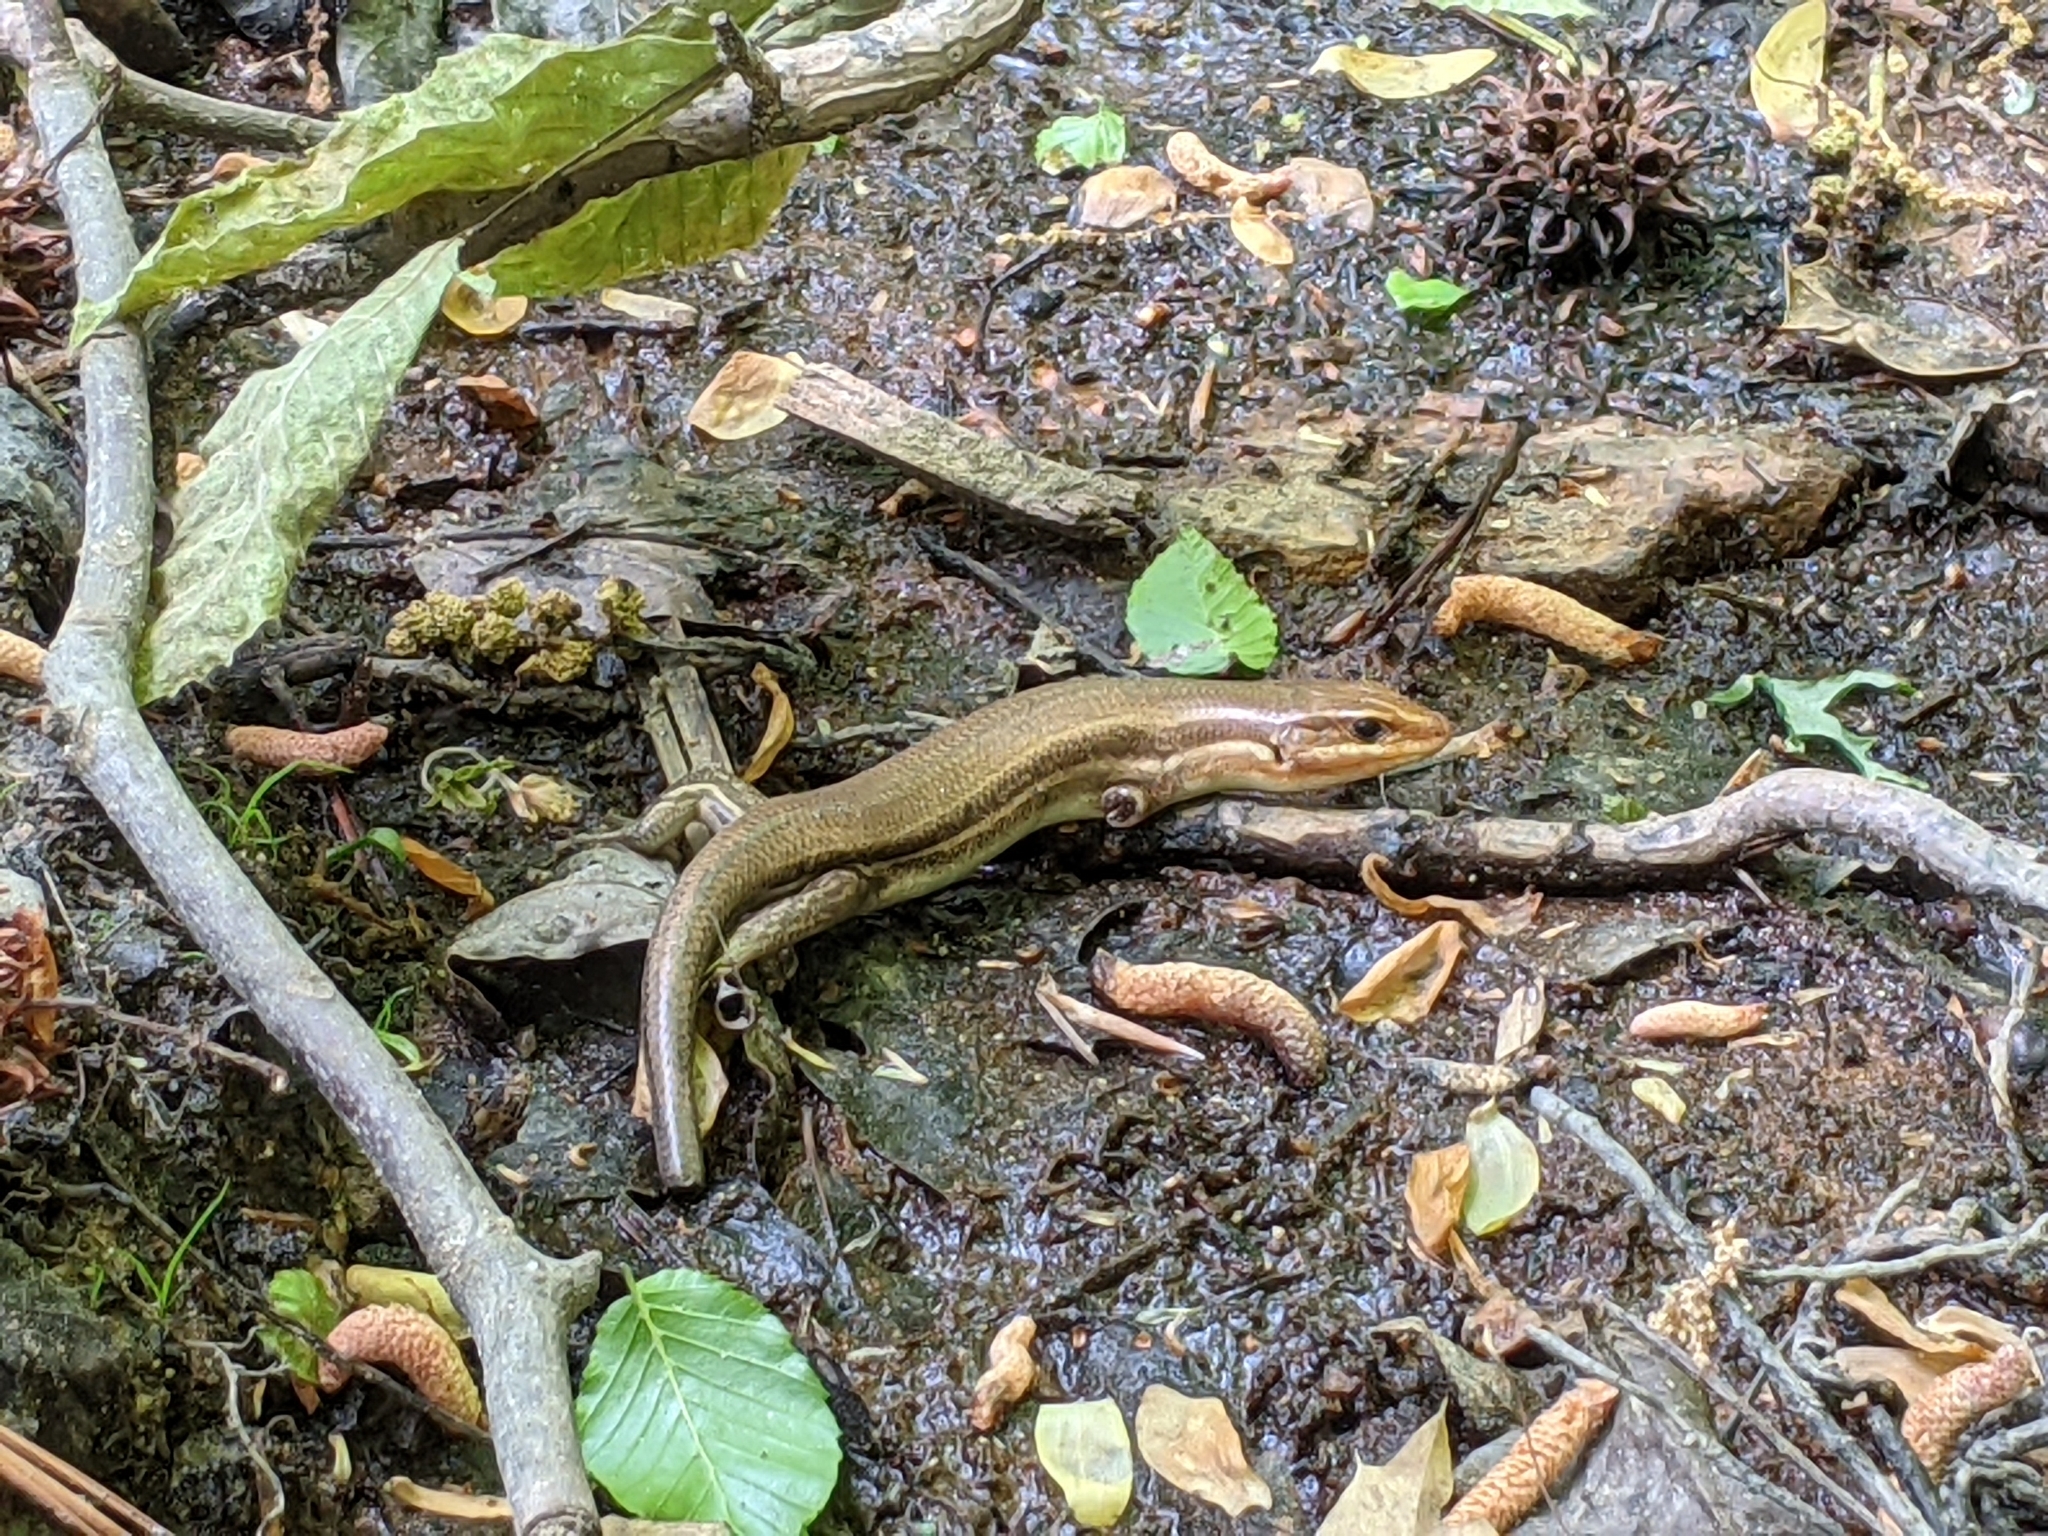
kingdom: Animalia
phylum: Chordata
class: Squamata
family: Scincidae
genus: Plestiodon
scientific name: Plestiodon laticeps
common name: Broadhead skink
